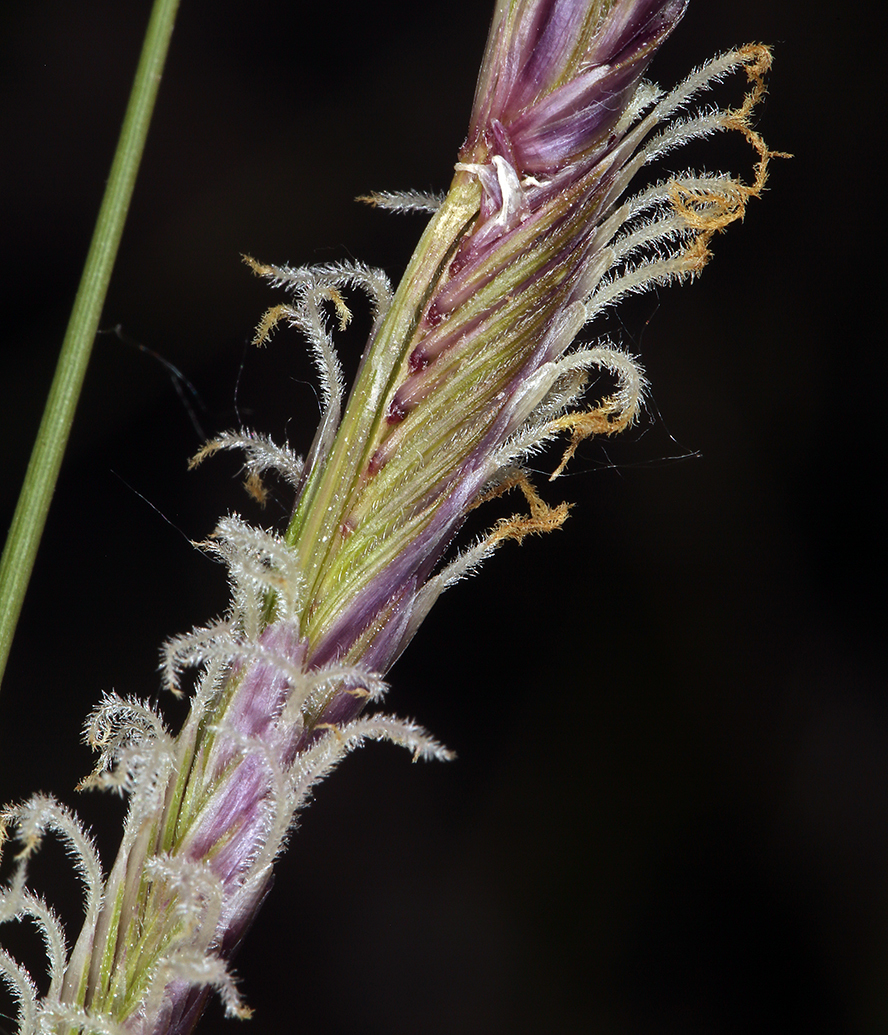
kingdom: Plantae
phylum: Tracheophyta
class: Liliopsida
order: Poales
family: Poaceae
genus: Sporobolus
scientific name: Sporobolus hookerianus
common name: Alkali cordgrass
